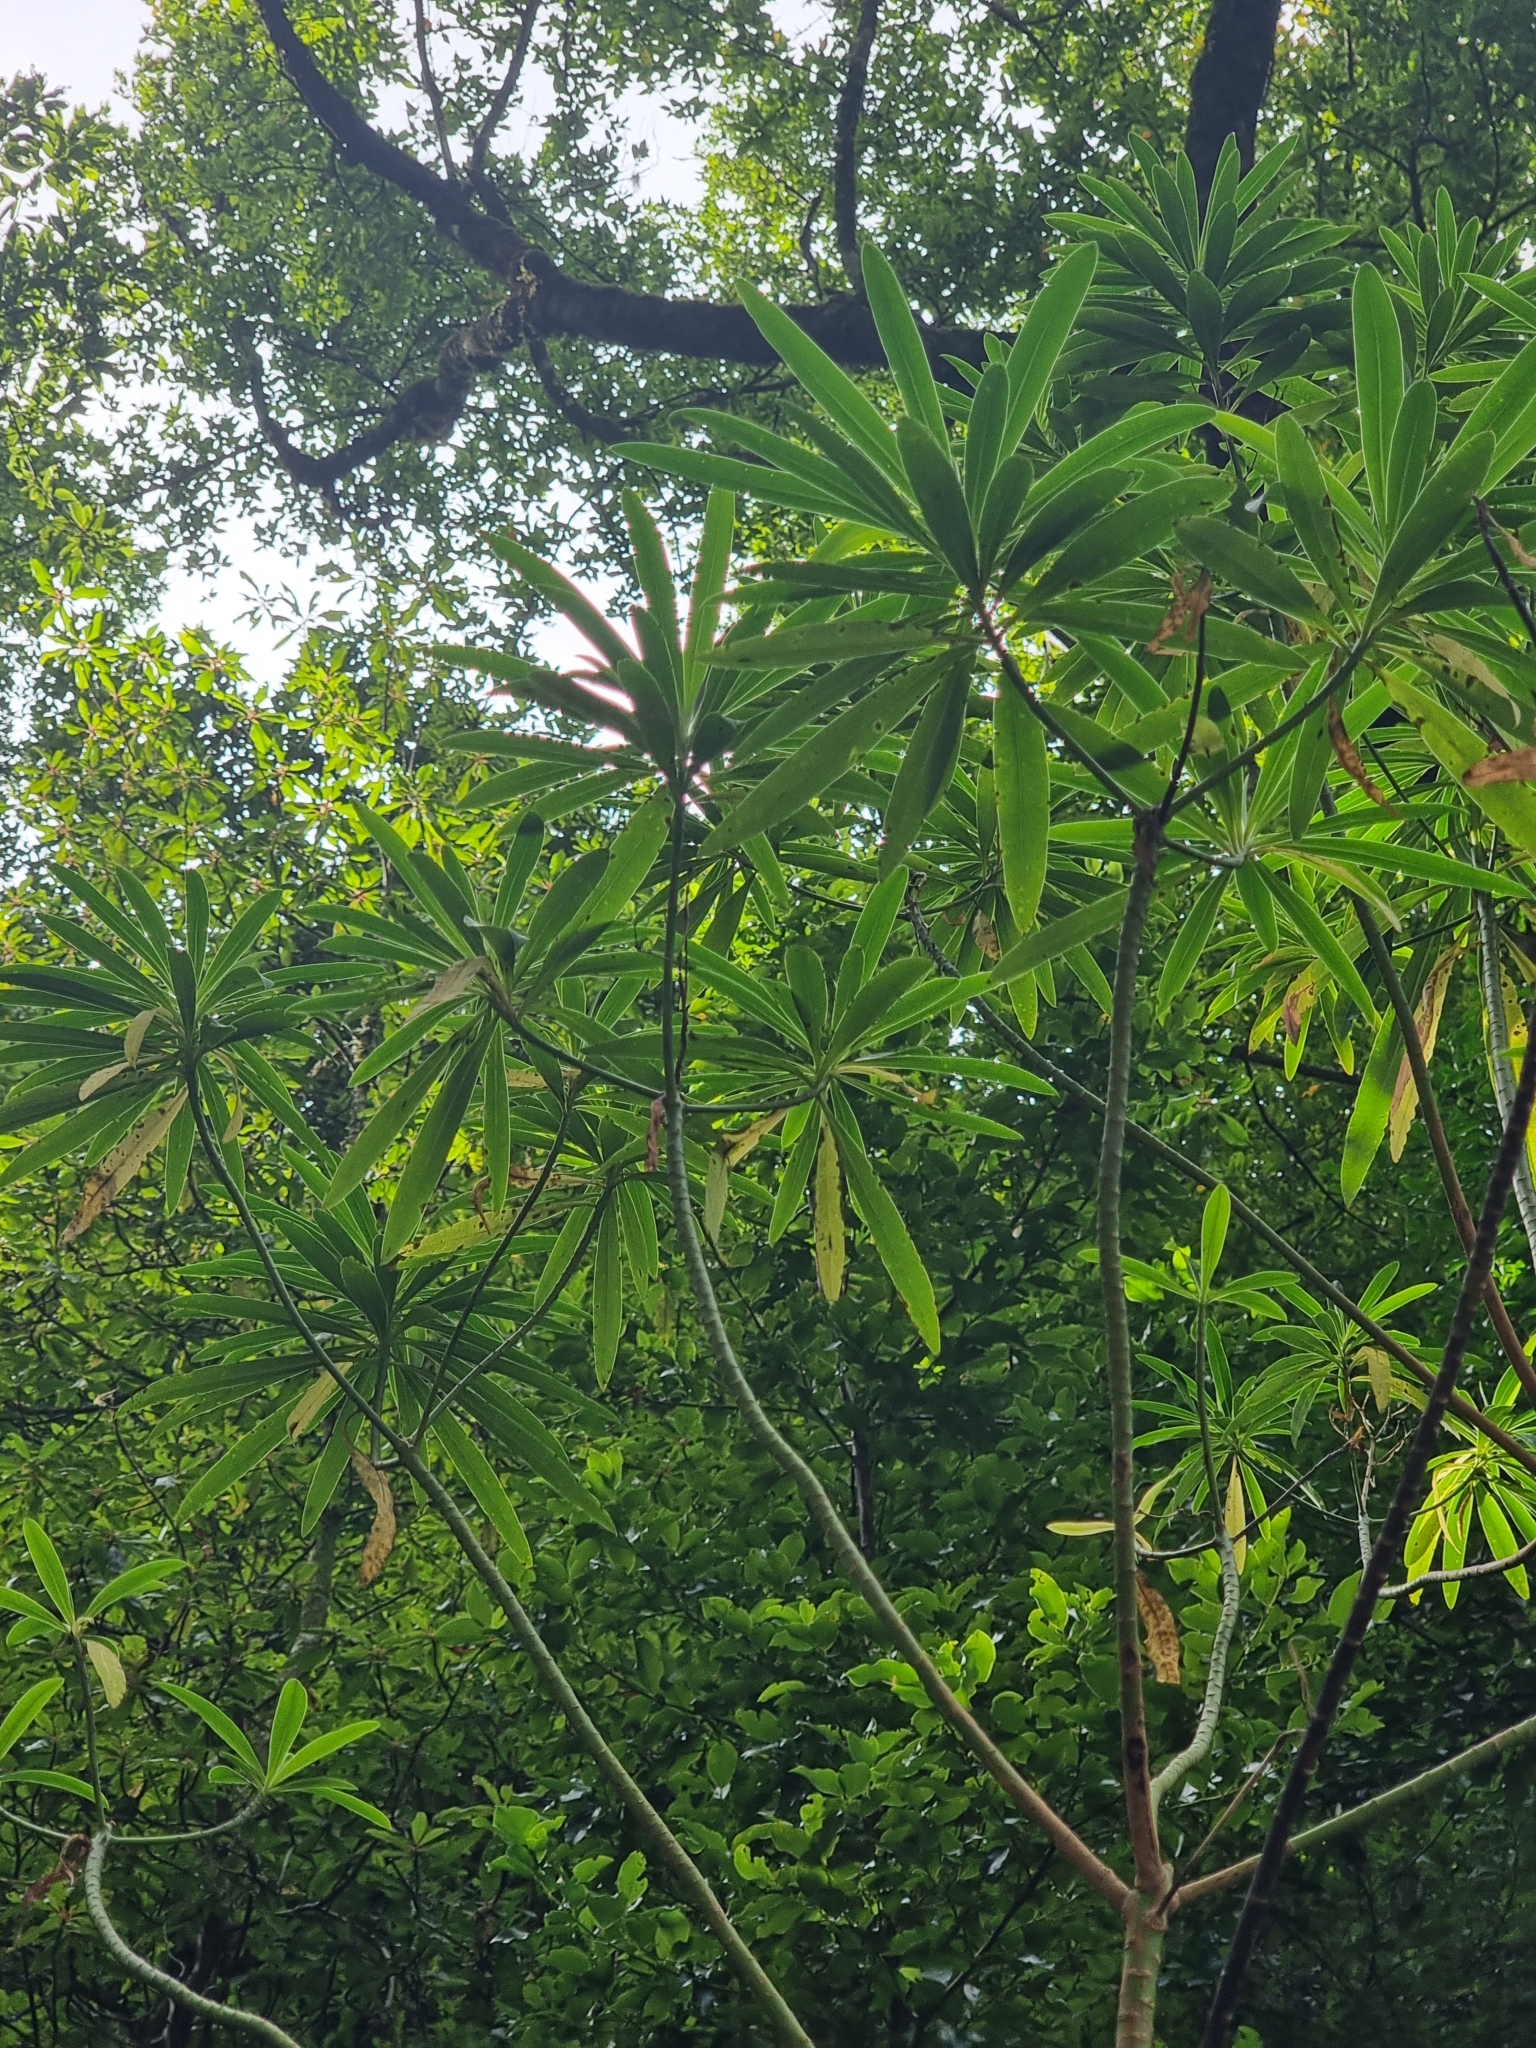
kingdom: Plantae
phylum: Tracheophyta
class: Magnoliopsida
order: Malpighiales
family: Euphorbiaceae
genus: Euphorbia
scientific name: Euphorbia mellifera
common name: Canary spurge
